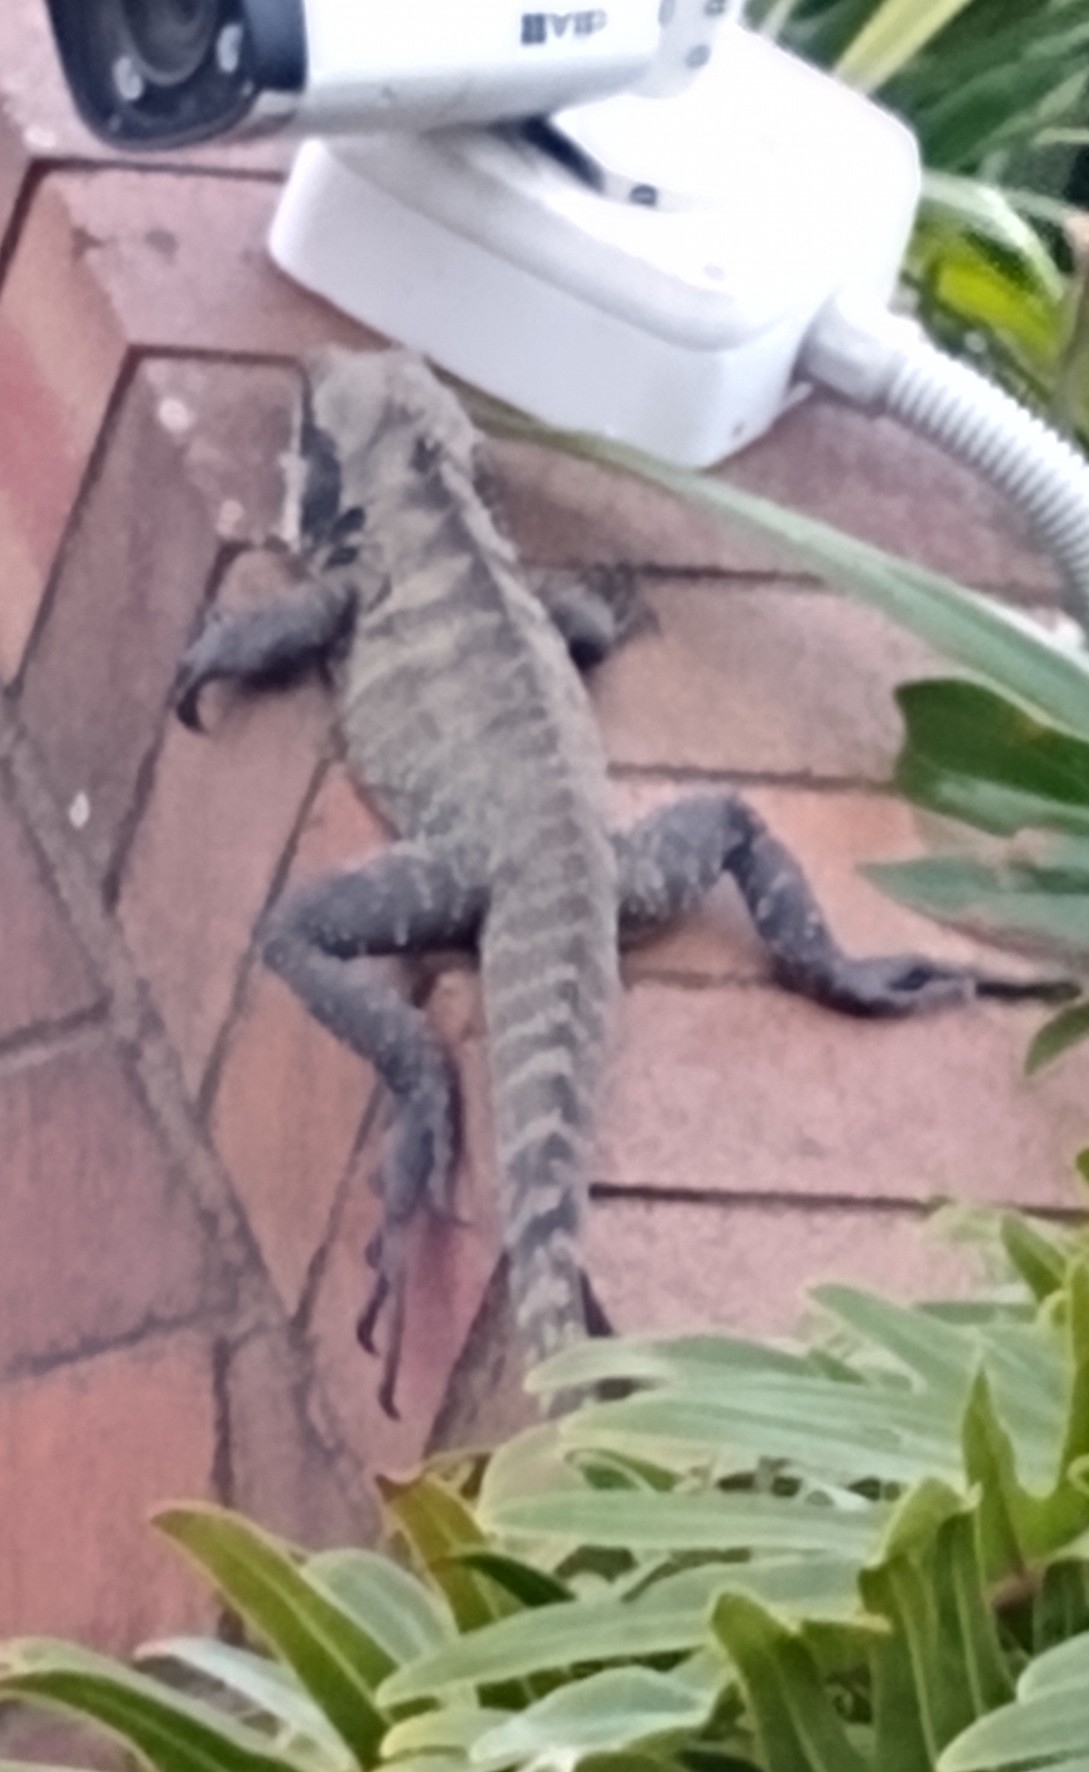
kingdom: Animalia
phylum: Chordata
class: Squamata
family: Agamidae
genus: Intellagama
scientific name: Intellagama lesueurii
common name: Eastern water dragon
